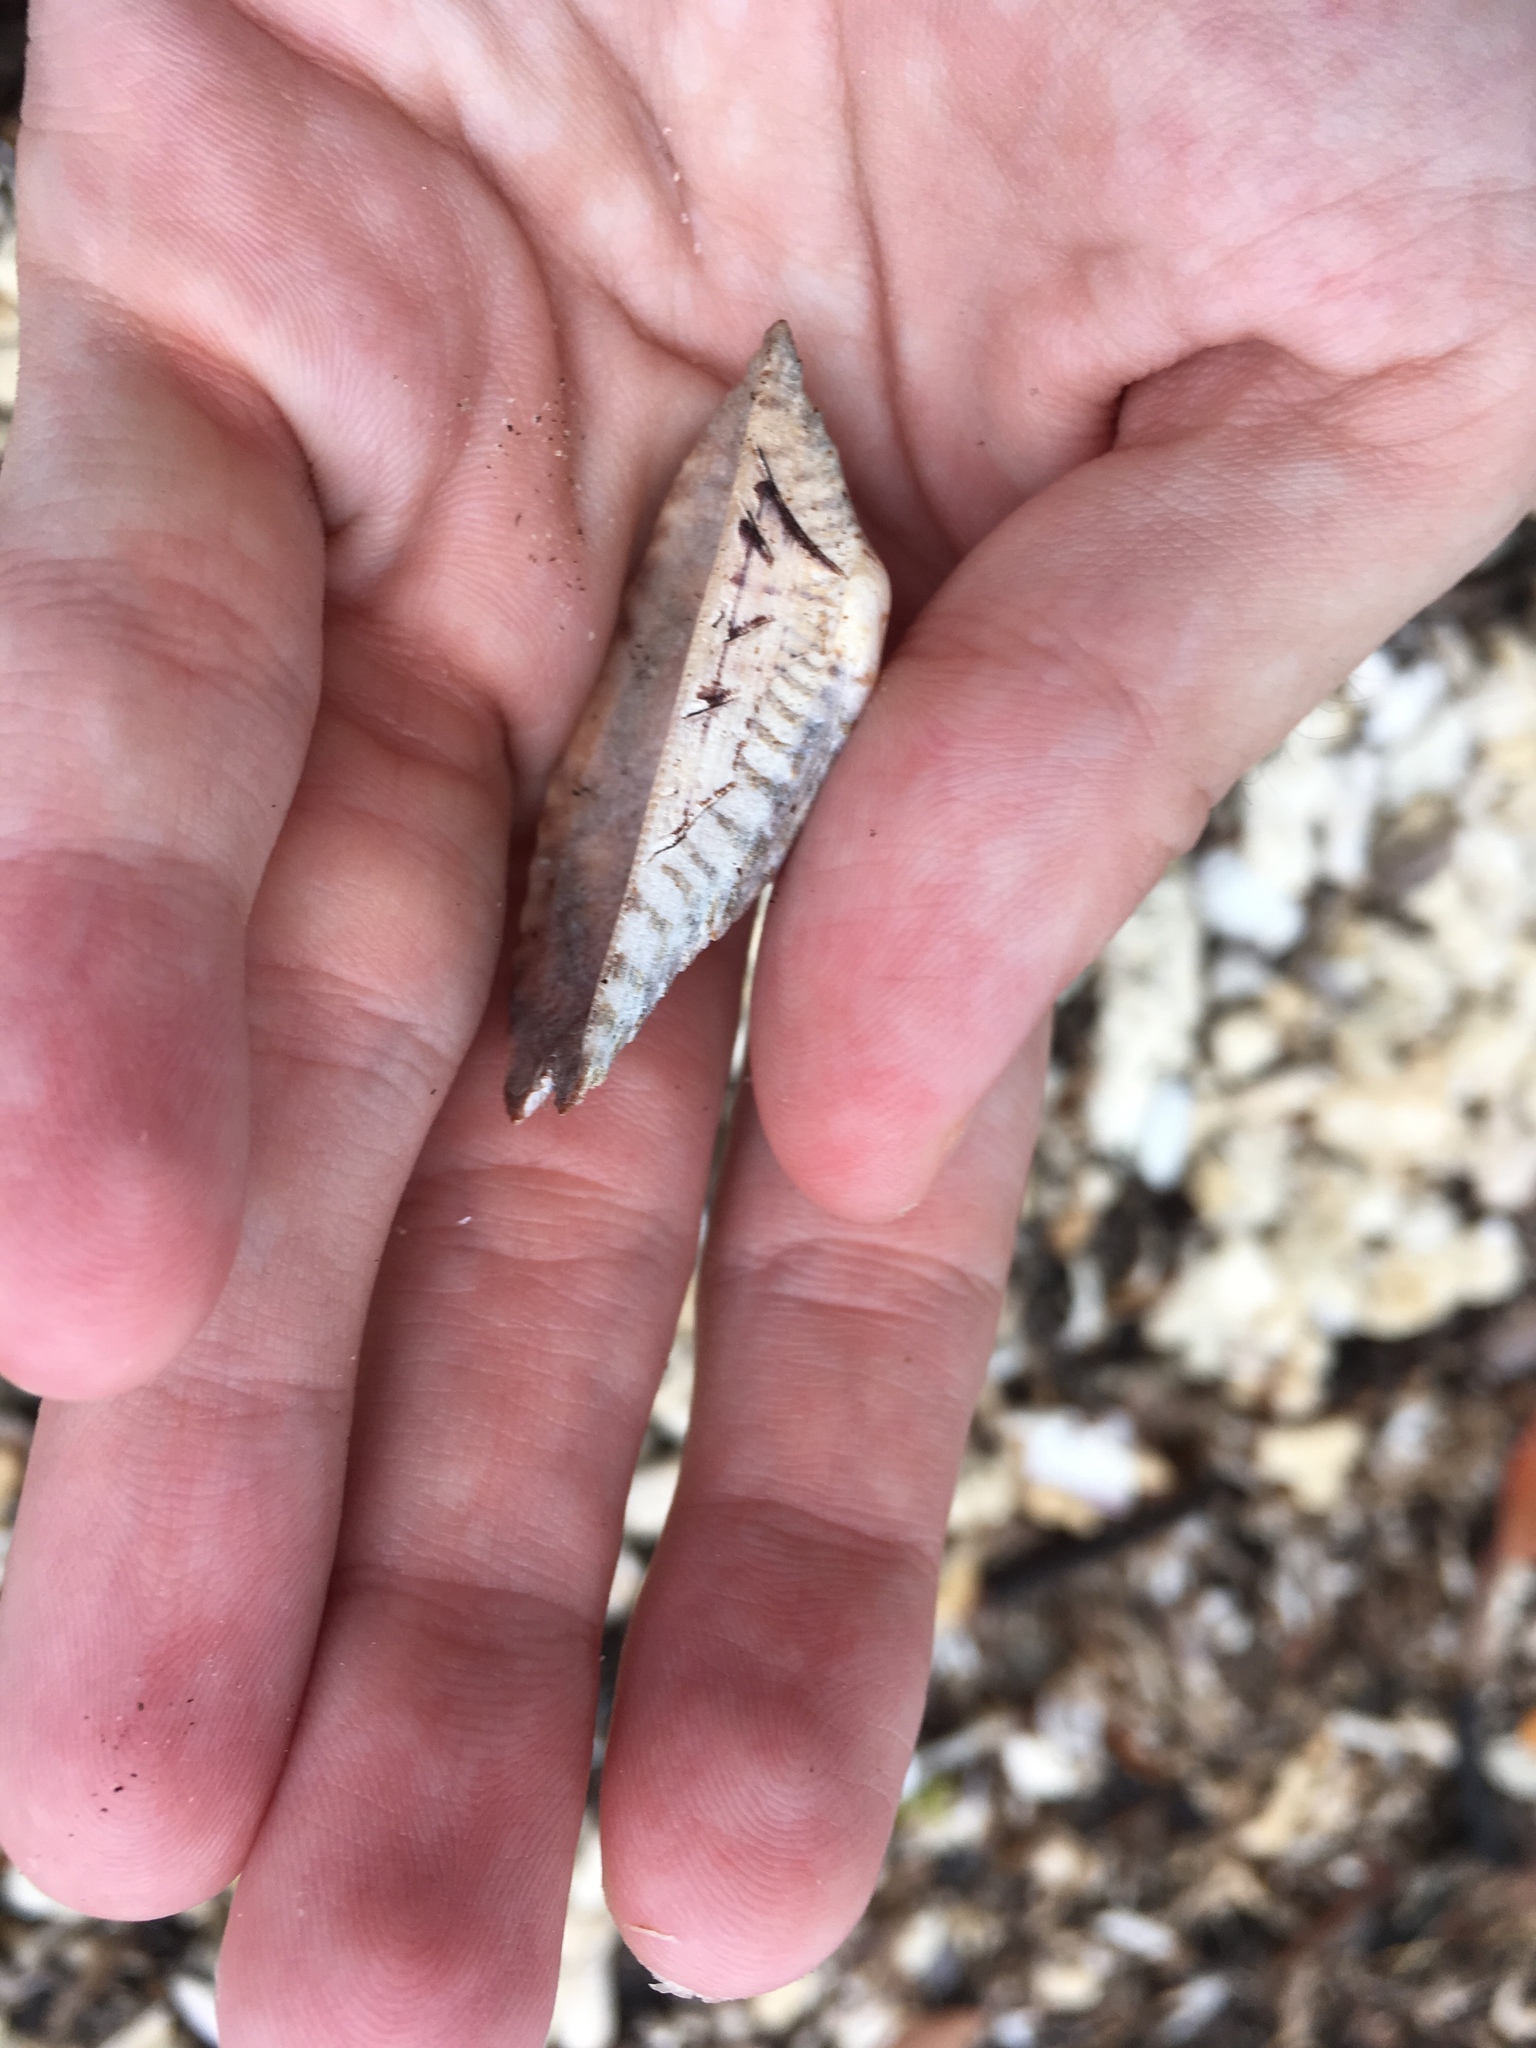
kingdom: Animalia
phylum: Mollusca
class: Bivalvia
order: Arcida
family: Arcidae
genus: Arca
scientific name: Arca zebra
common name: Atlantic turkey wing
